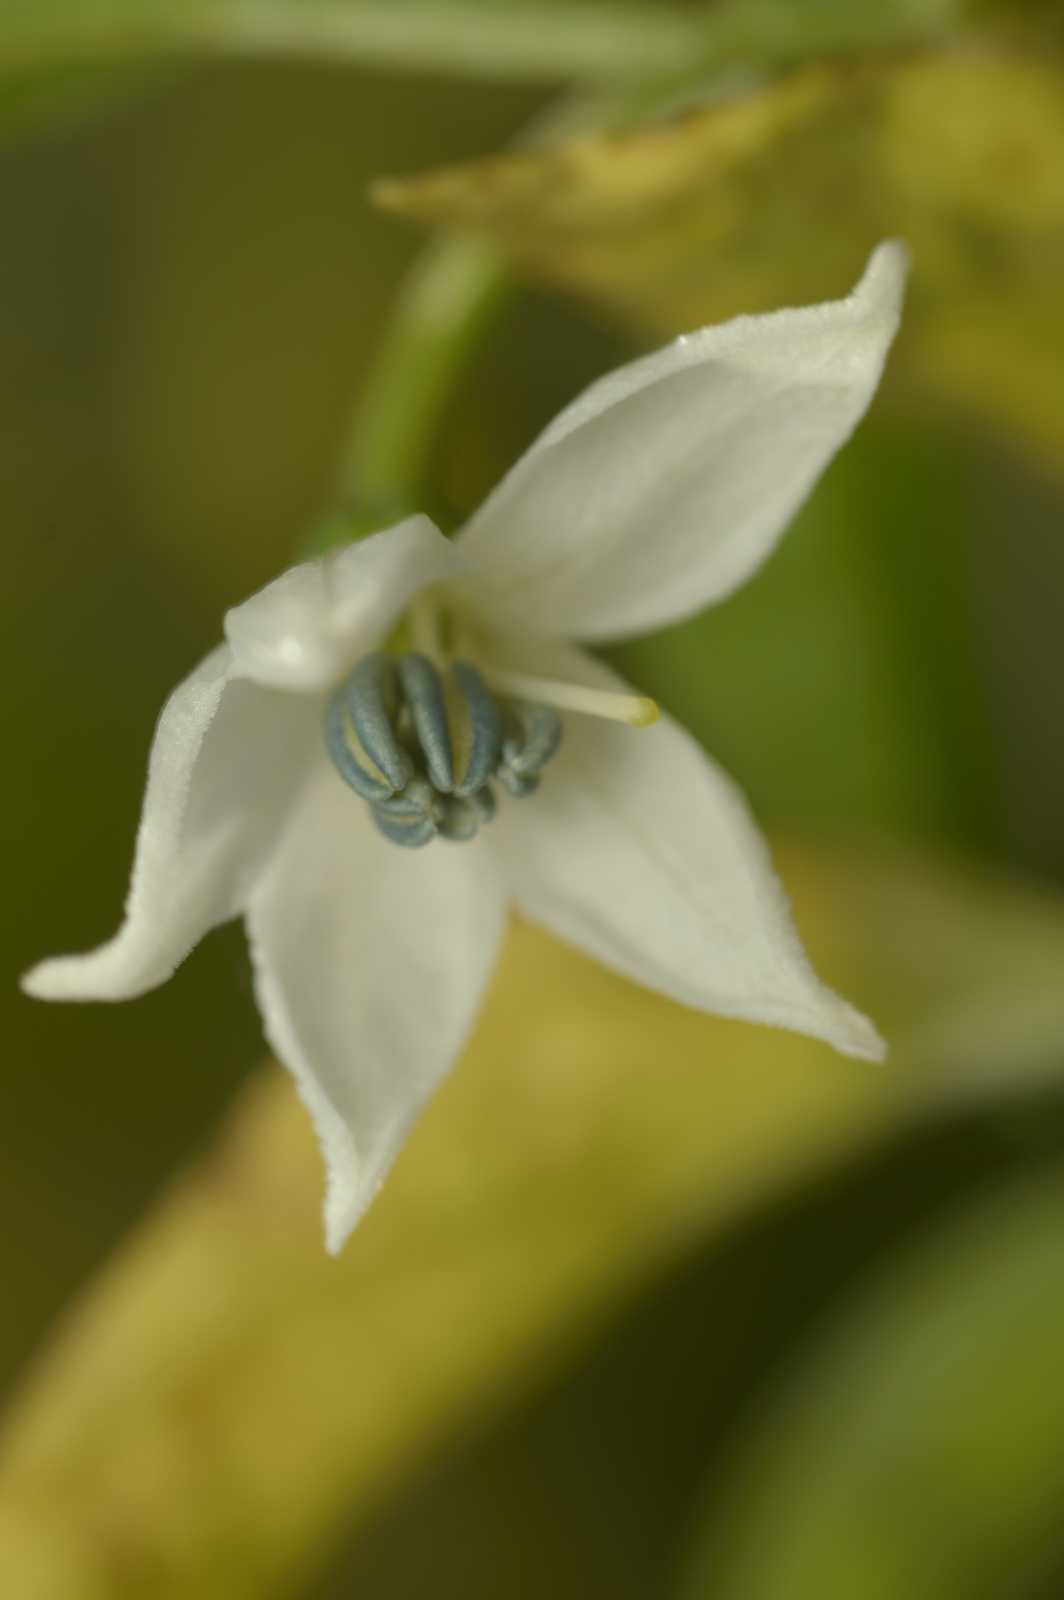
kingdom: Plantae
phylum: Tracheophyta
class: Magnoliopsida
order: Solanales
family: Solanaceae
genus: Capsicum
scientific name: Capsicum annuum
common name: Sweet pepper
